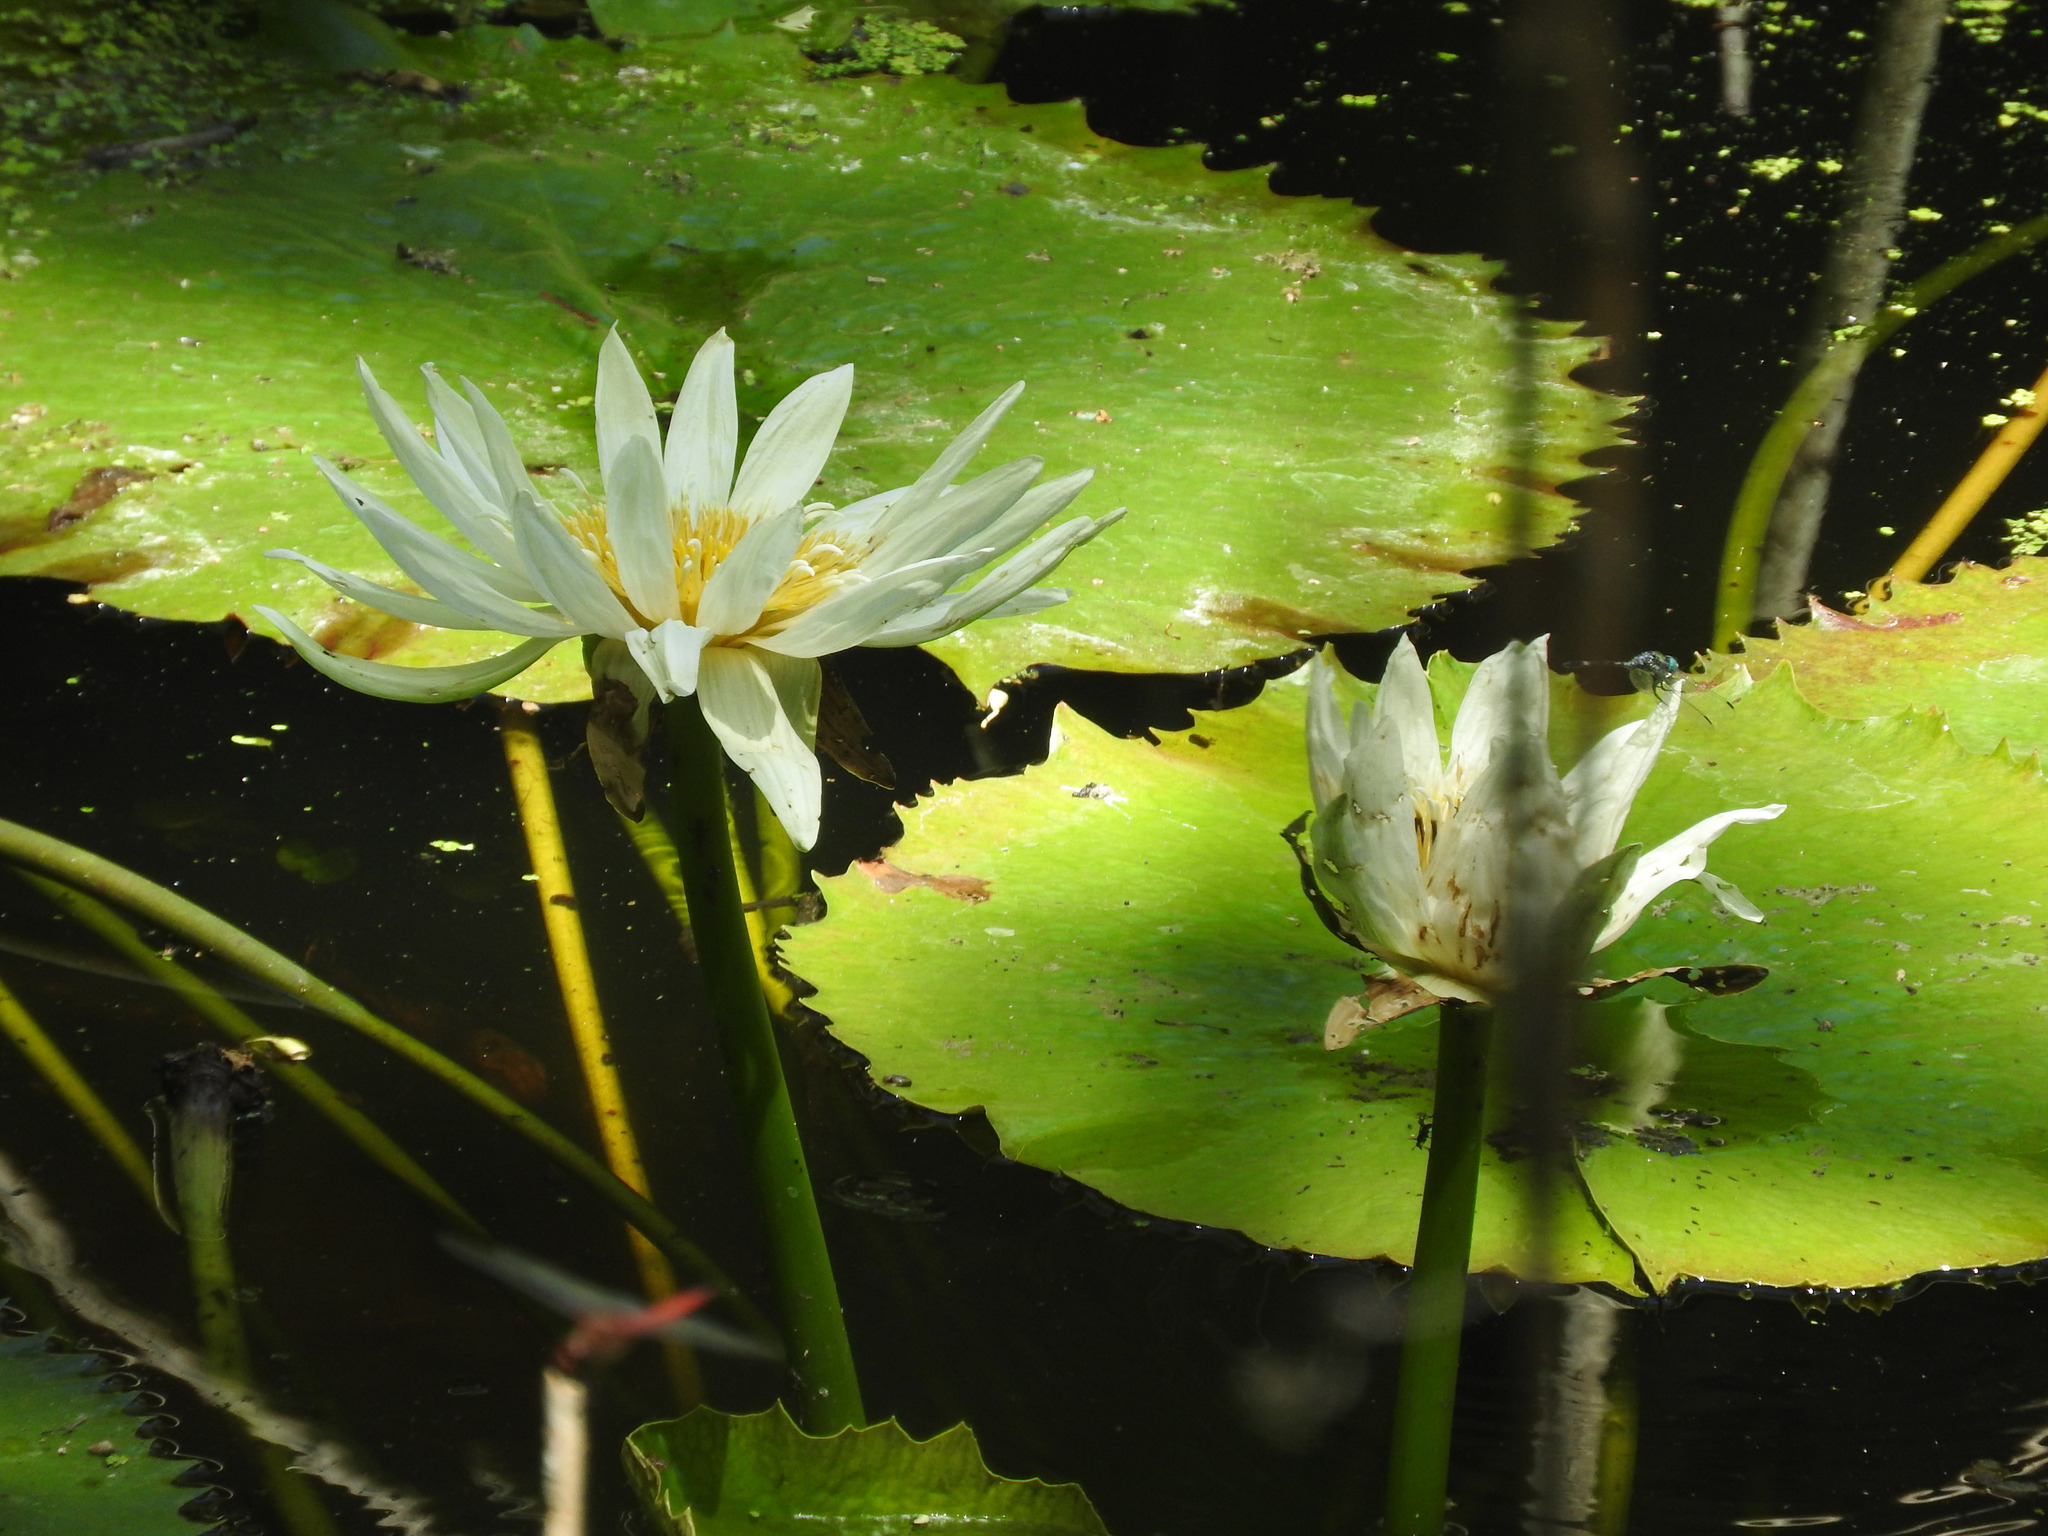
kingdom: Plantae
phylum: Tracheophyta
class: Magnoliopsida
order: Nymphaeales
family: Nymphaeaceae
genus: Nymphaea
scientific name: Nymphaea mexicana
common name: Banana water-lily
